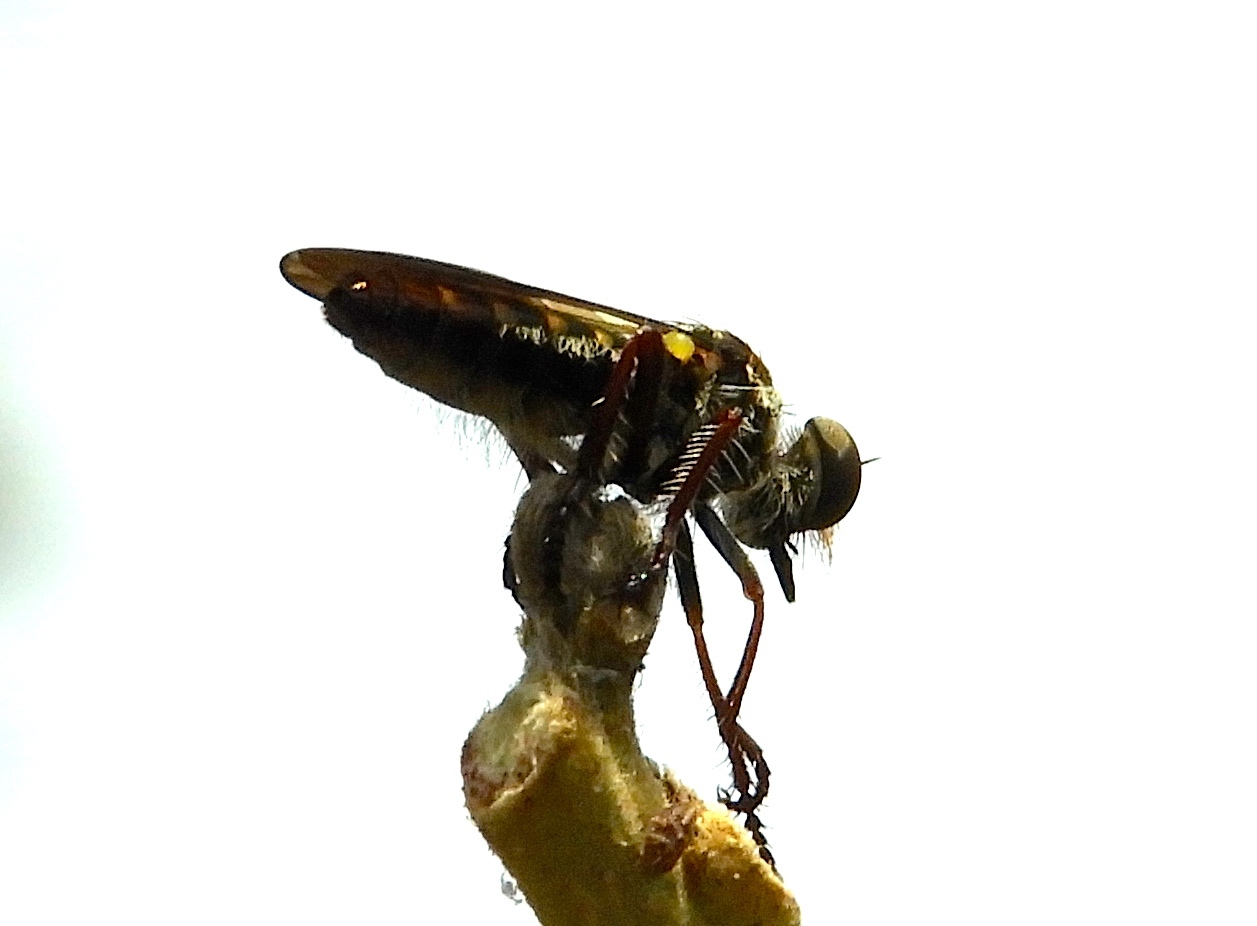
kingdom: Animalia
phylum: Arthropoda
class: Insecta
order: Diptera
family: Asilidae
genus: Heteropogon
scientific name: Heteropogon
